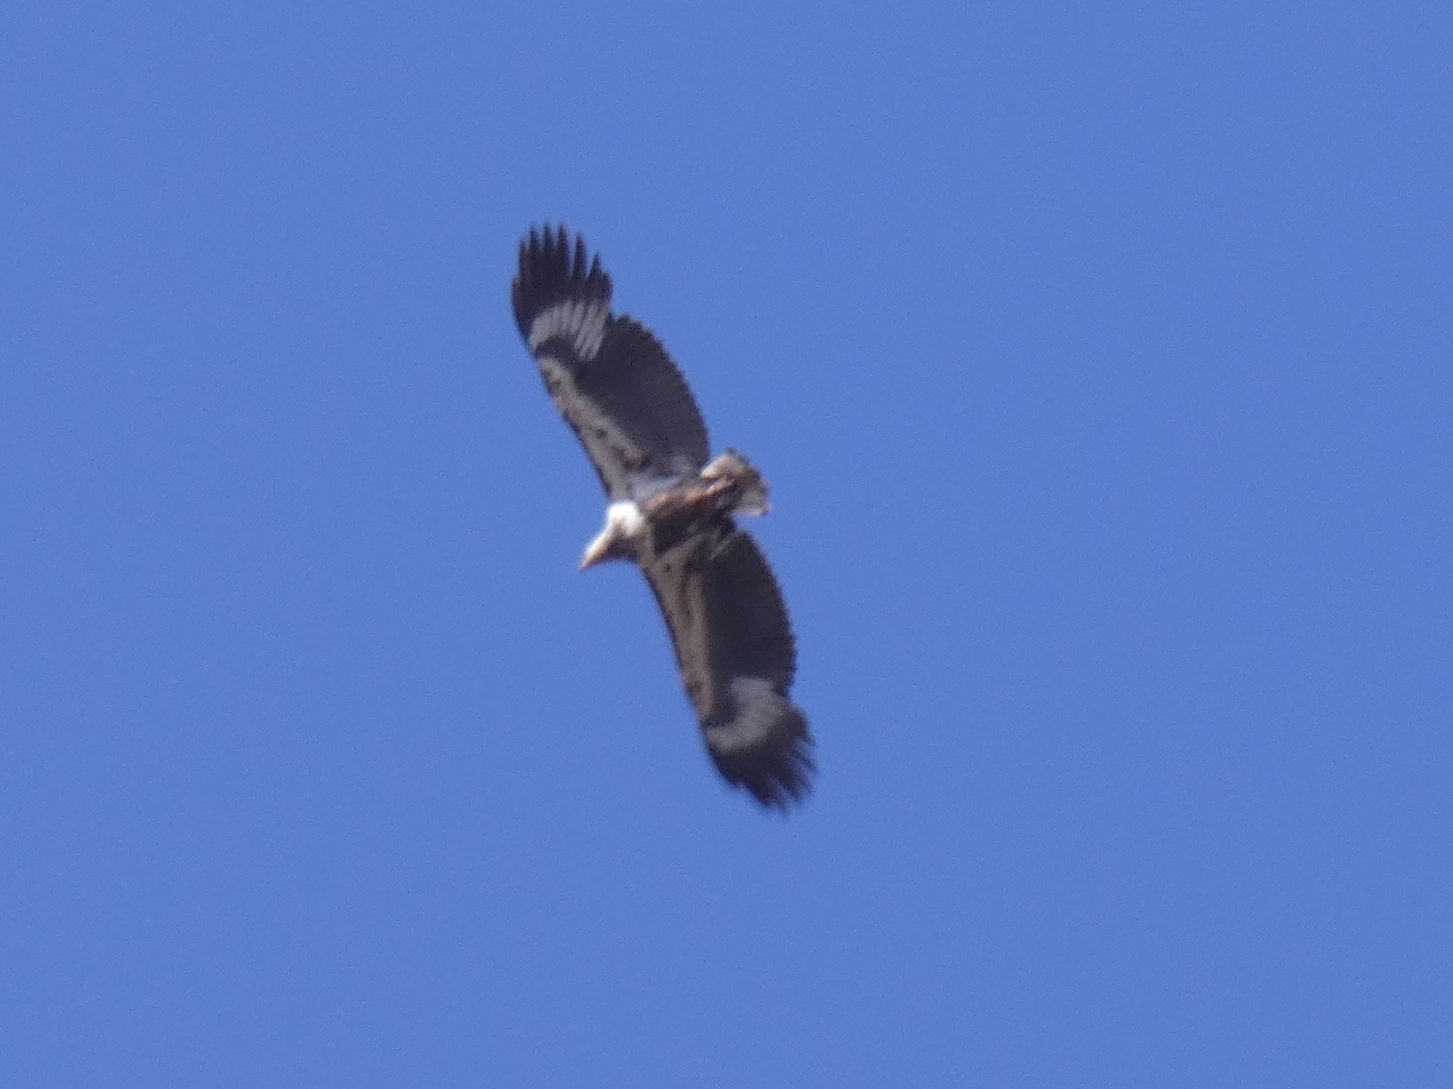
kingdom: Animalia
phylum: Chordata
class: Aves
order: Accipitriformes
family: Accipitridae
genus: Haliaeetus
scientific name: Haliaeetus vocifer
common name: African fish eagle
